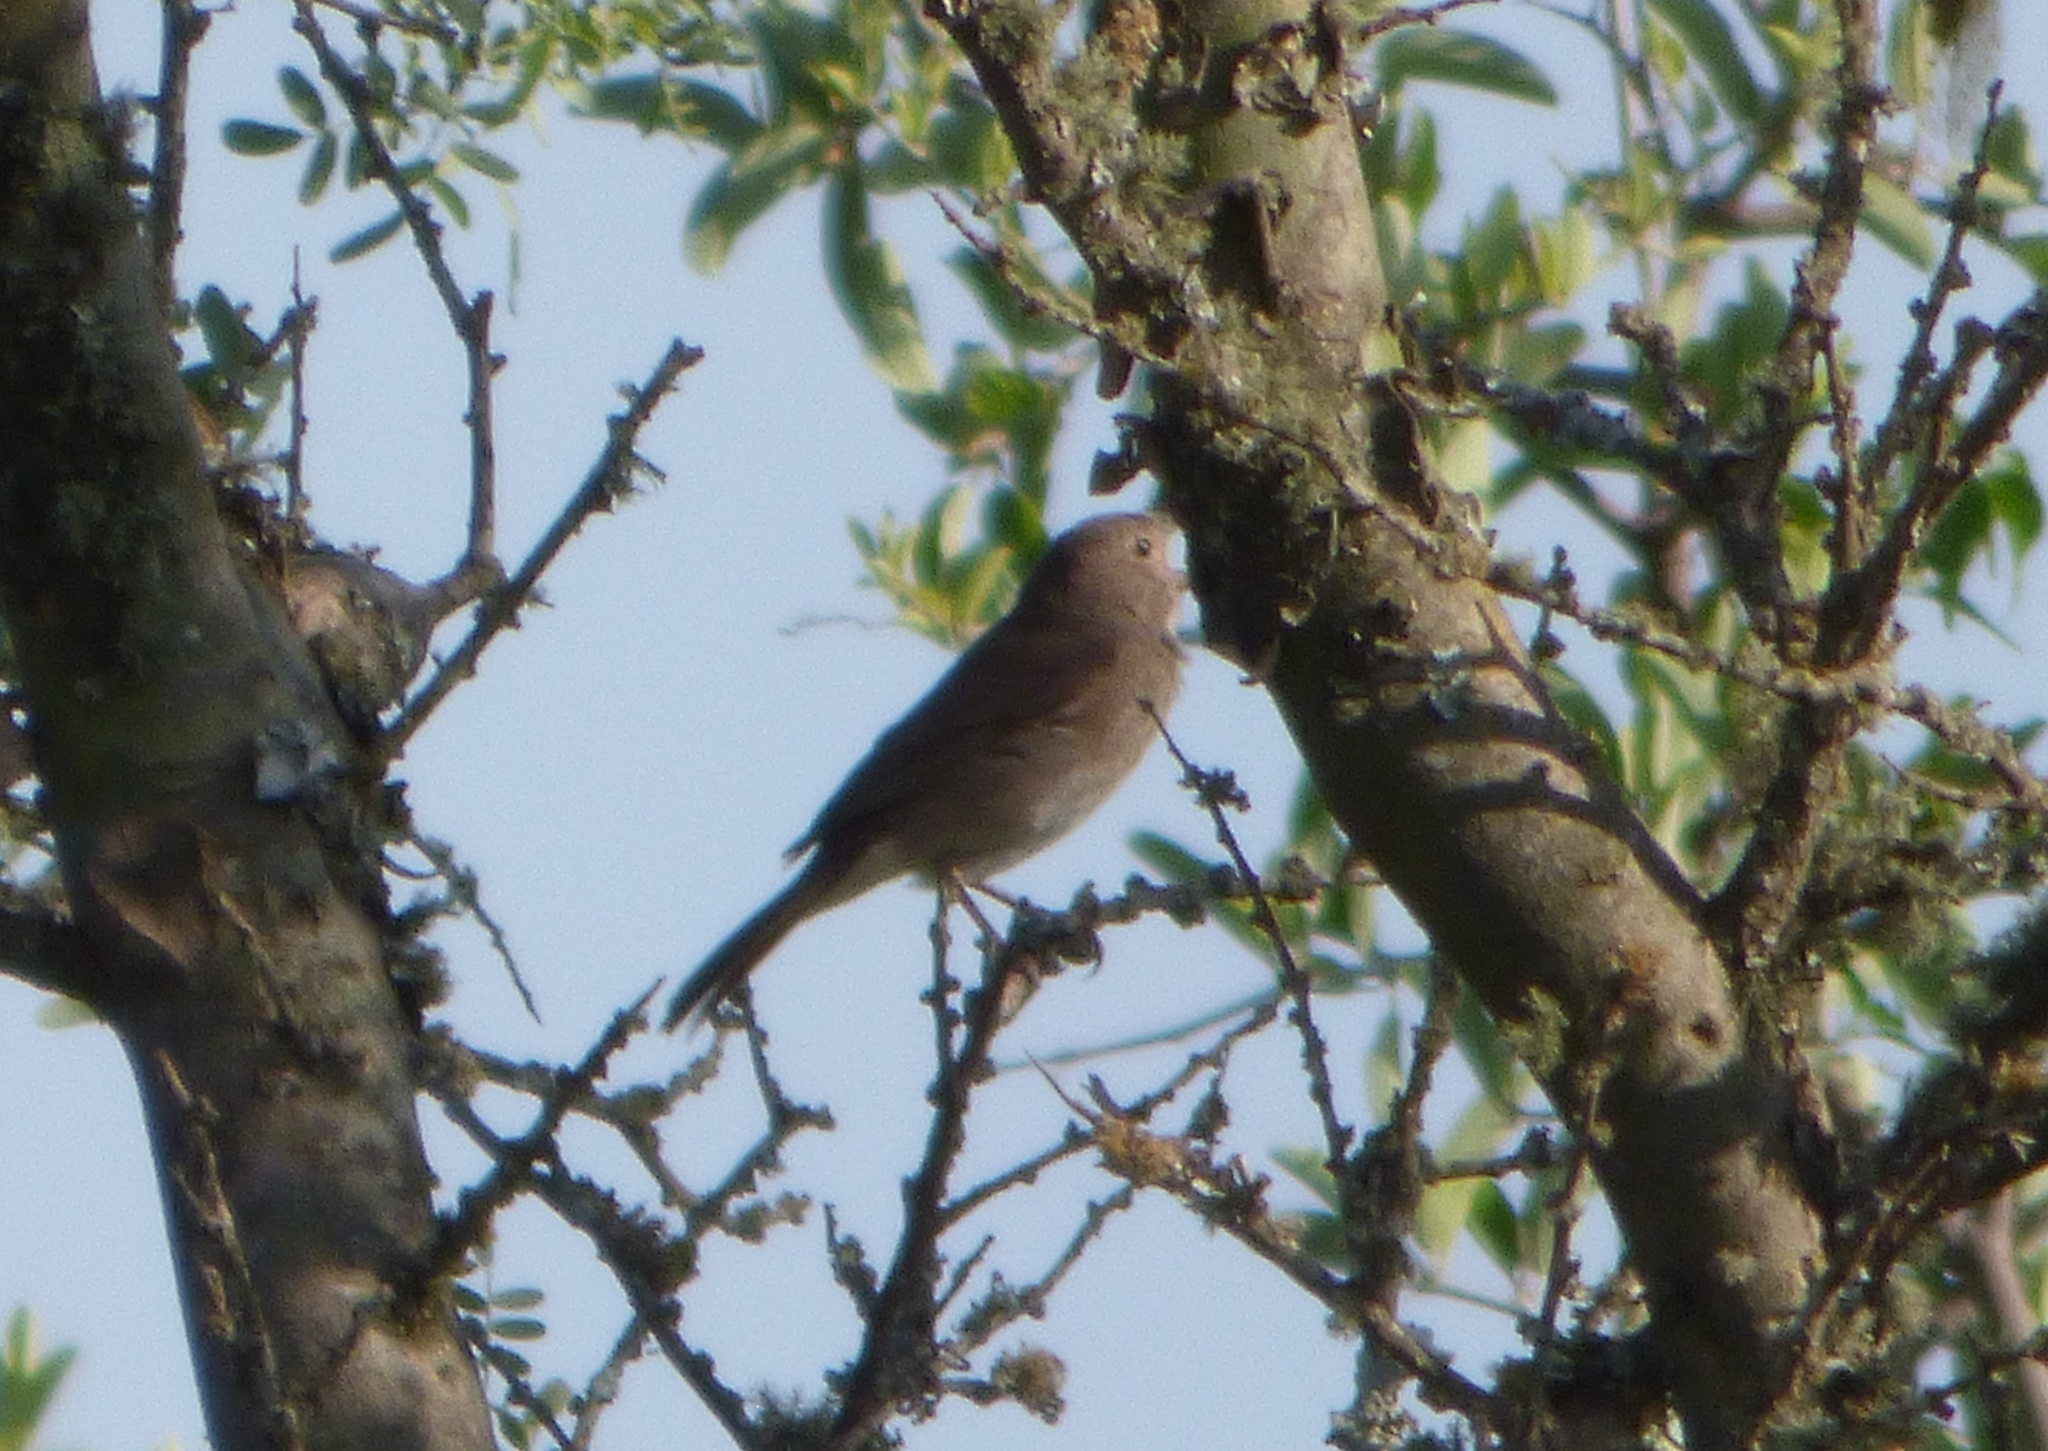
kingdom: Animalia
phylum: Chordata
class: Aves
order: Passeriformes
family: Thraupidae
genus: Asemospiza
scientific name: Asemospiza obscura
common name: Dull-colored grassquit
